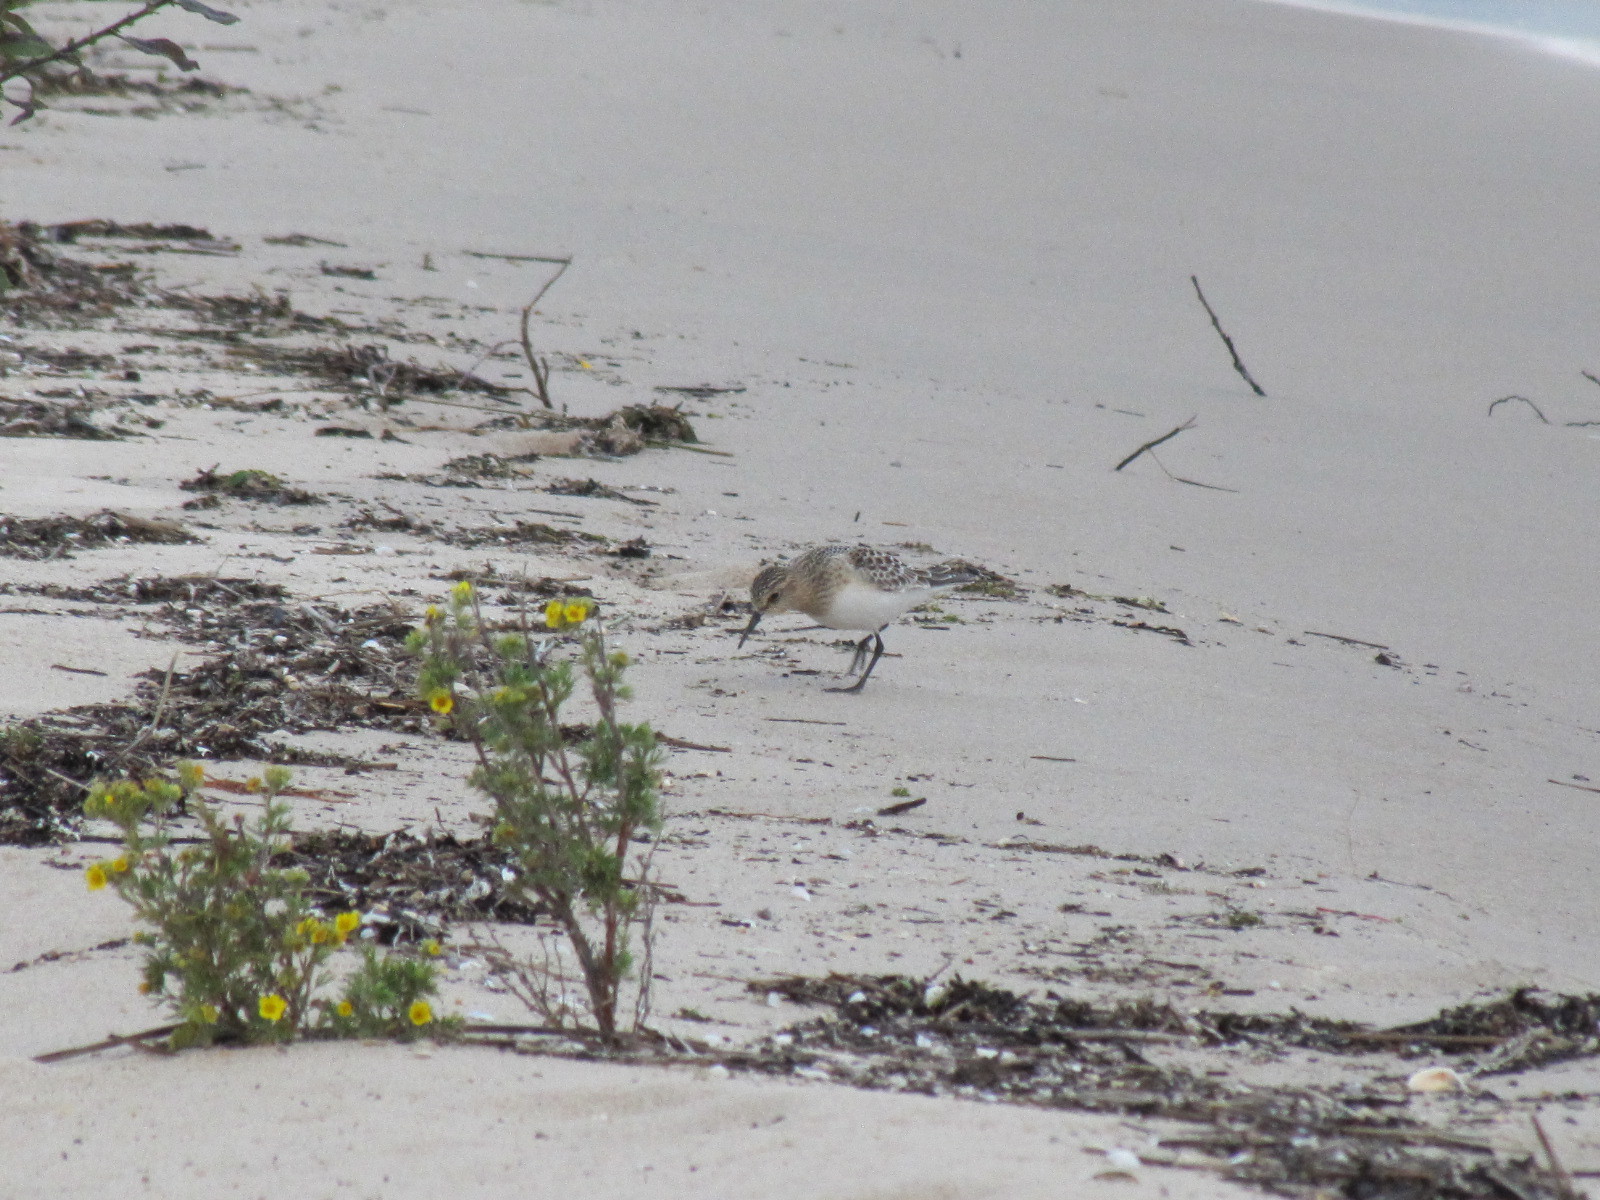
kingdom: Animalia
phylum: Chordata
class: Aves
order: Charadriiformes
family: Scolopacidae
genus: Calidris
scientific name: Calidris bairdii
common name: Baird's sandpiper
